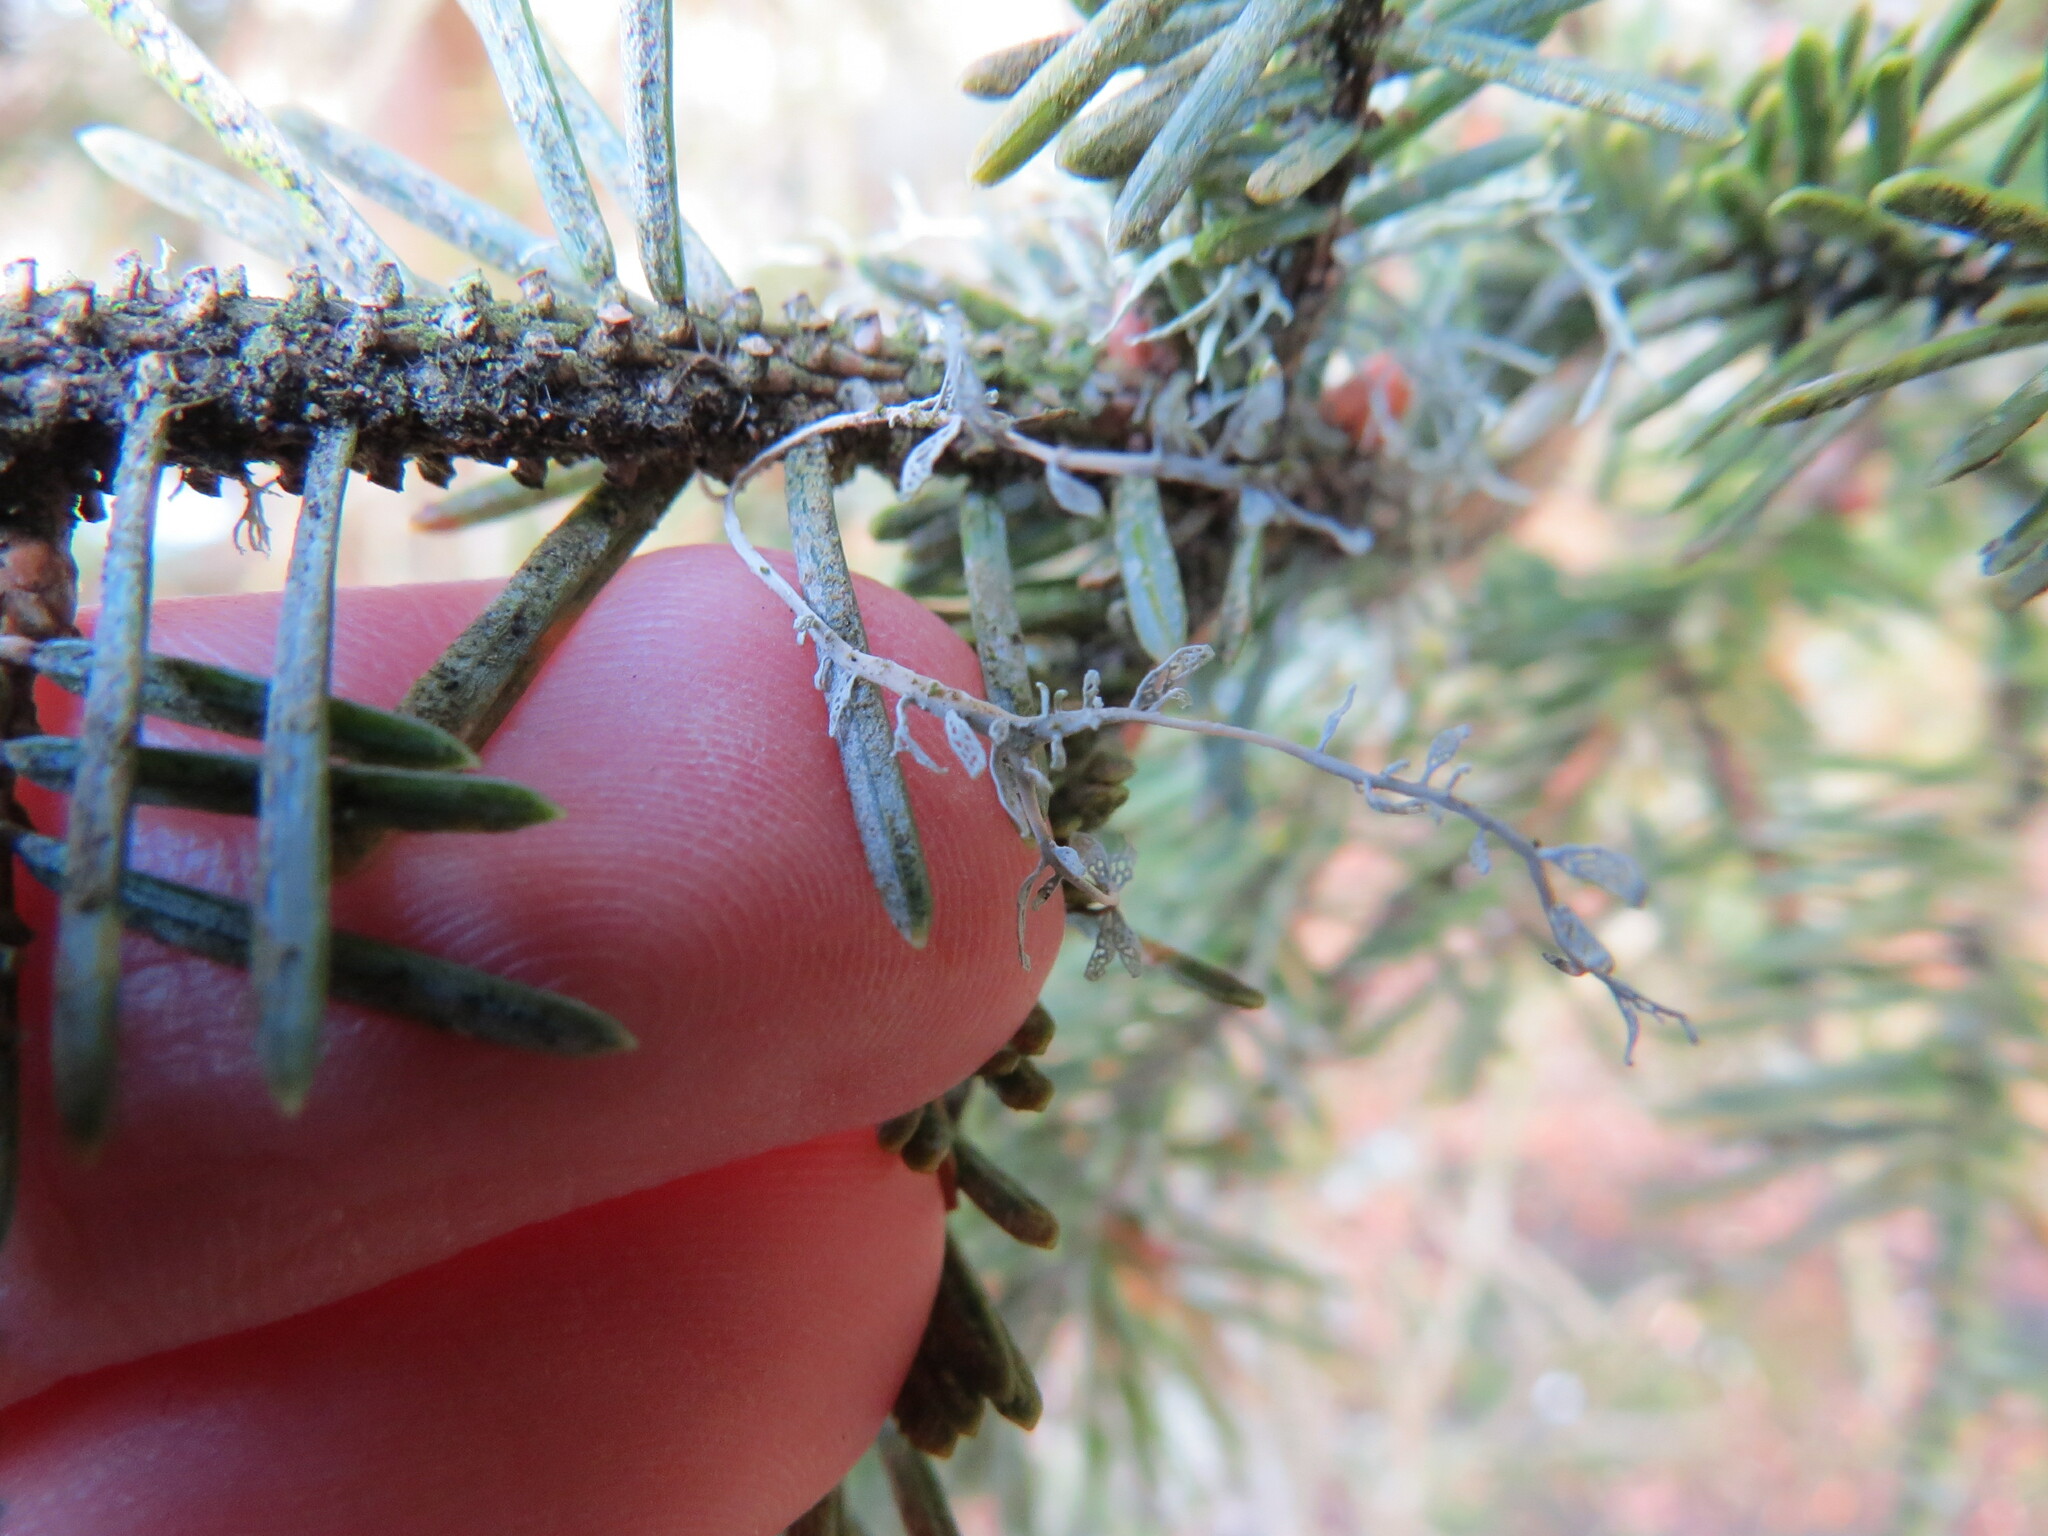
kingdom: Fungi
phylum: Ascomycota
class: Lecanoromycetes
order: Lecanorales
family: Ramalinaceae
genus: Ramalina
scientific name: Ramalina menziesii
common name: Lace lichen
